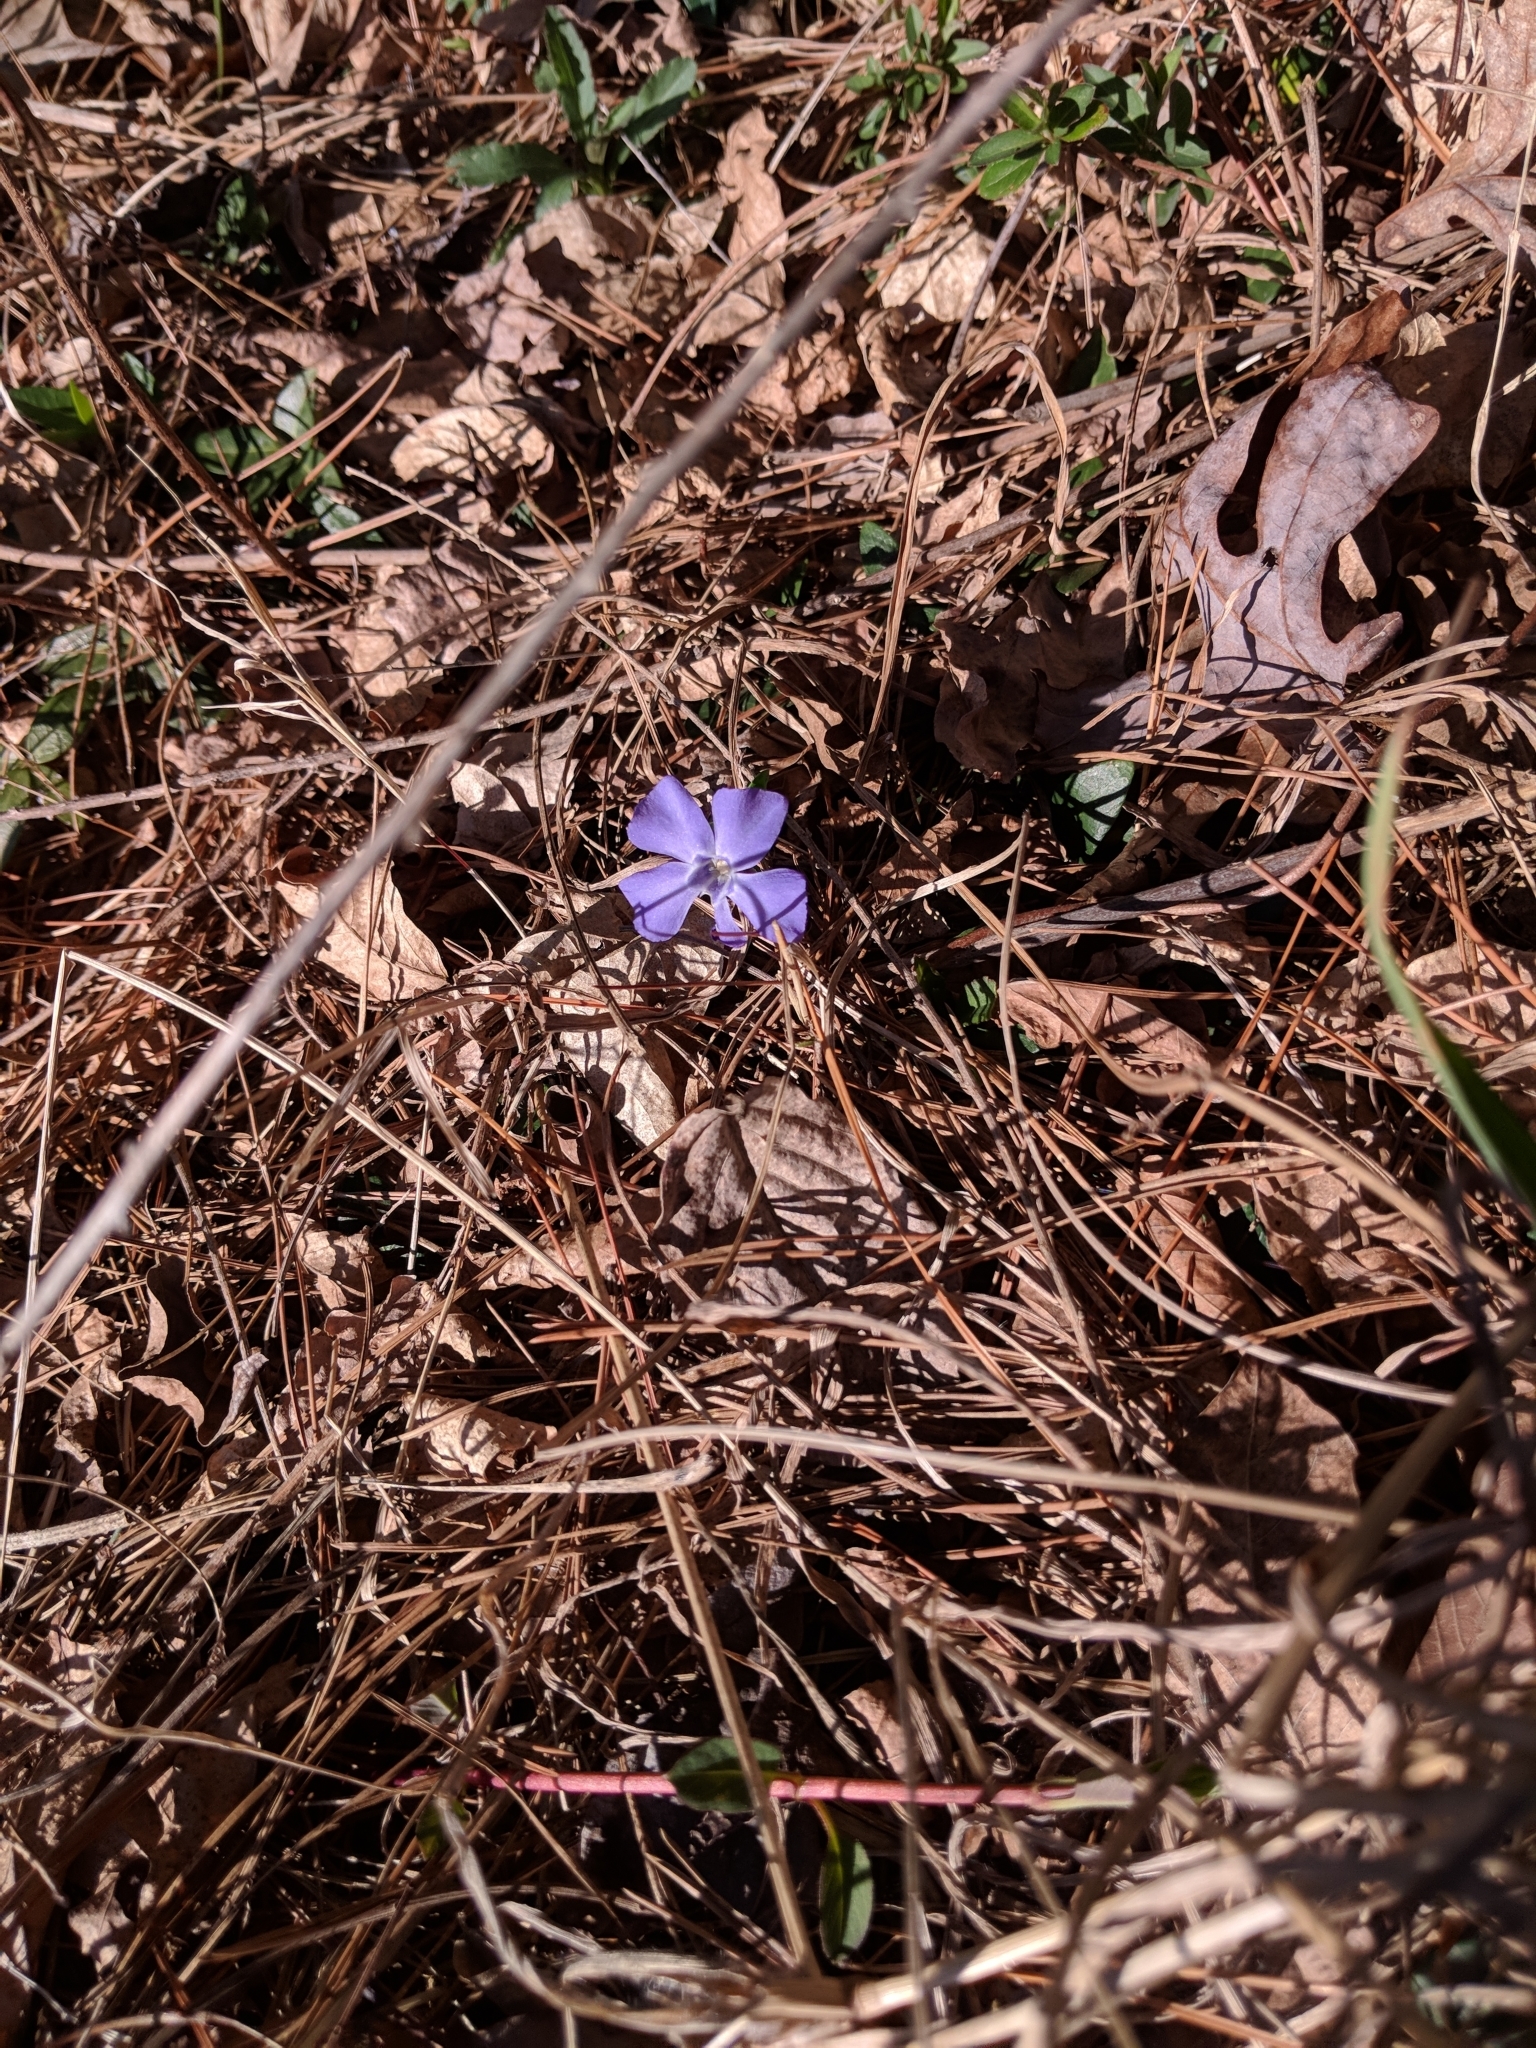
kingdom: Plantae
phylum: Tracheophyta
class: Magnoliopsida
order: Gentianales
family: Apocynaceae
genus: Vinca
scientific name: Vinca minor
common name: Lesser periwinkle
